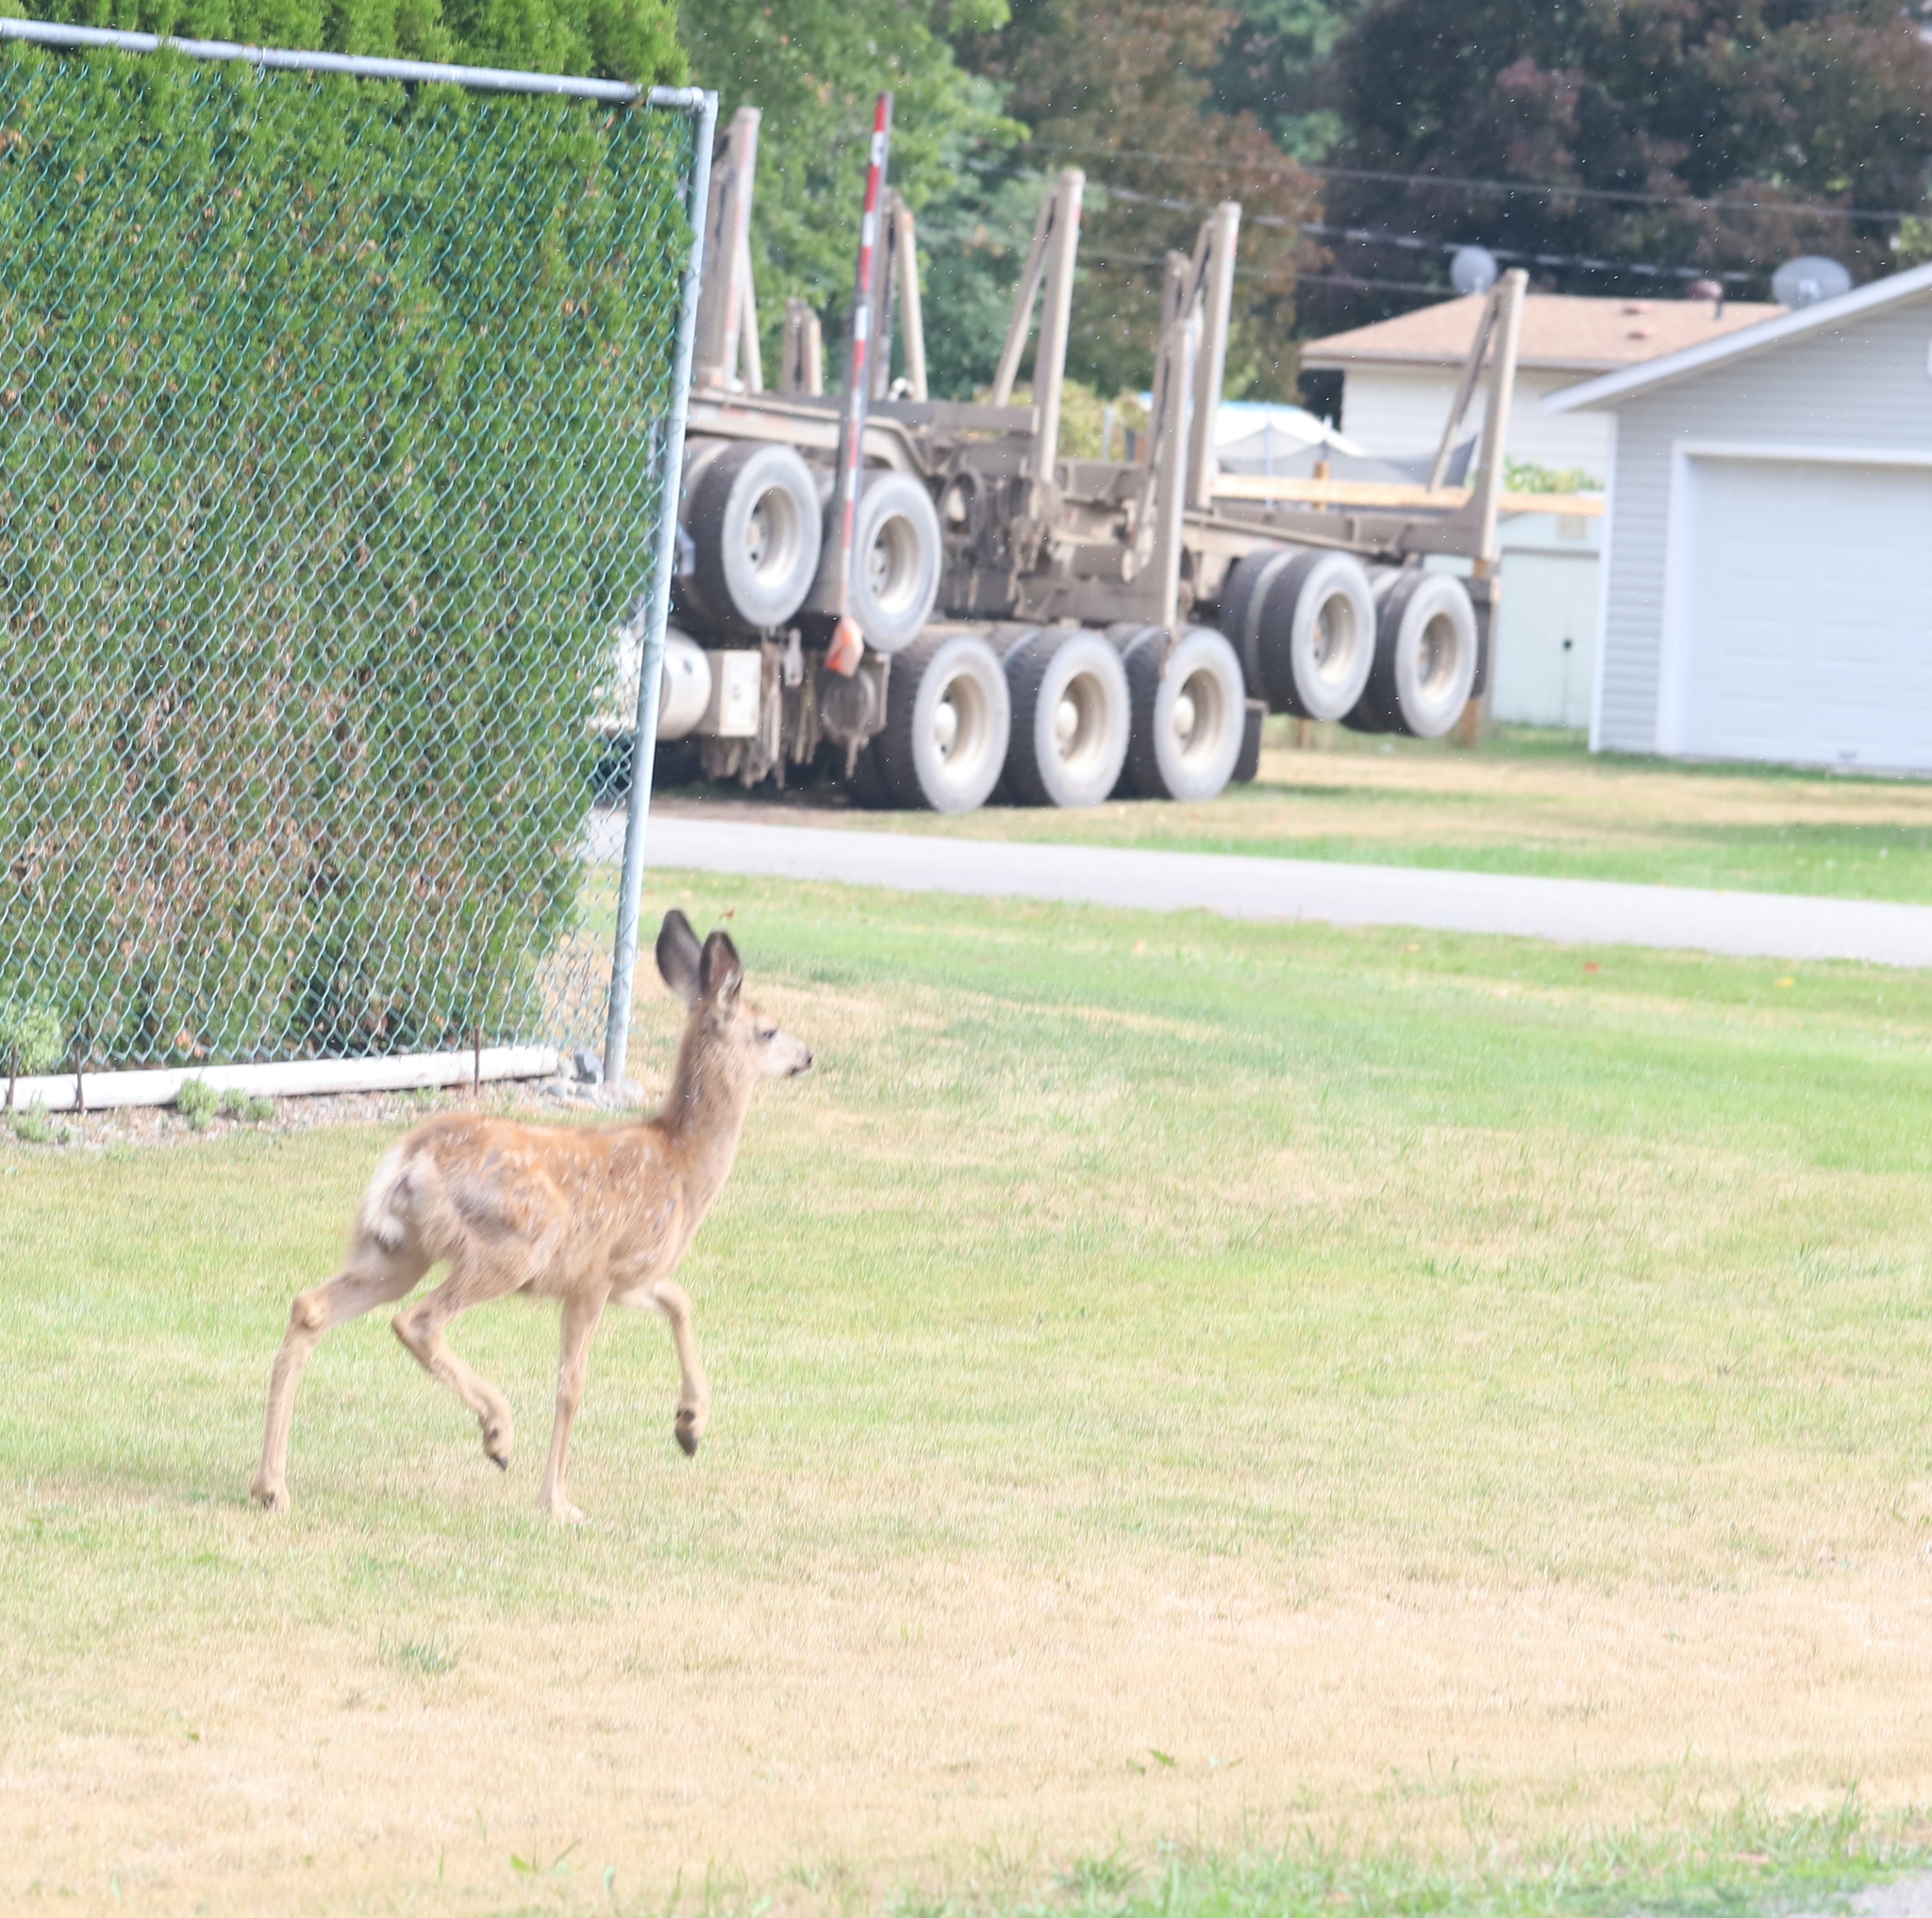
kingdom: Animalia
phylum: Chordata
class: Mammalia
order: Artiodactyla
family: Cervidae
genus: Odocoileus
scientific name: Odocoileus hemionus
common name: Mule deer
